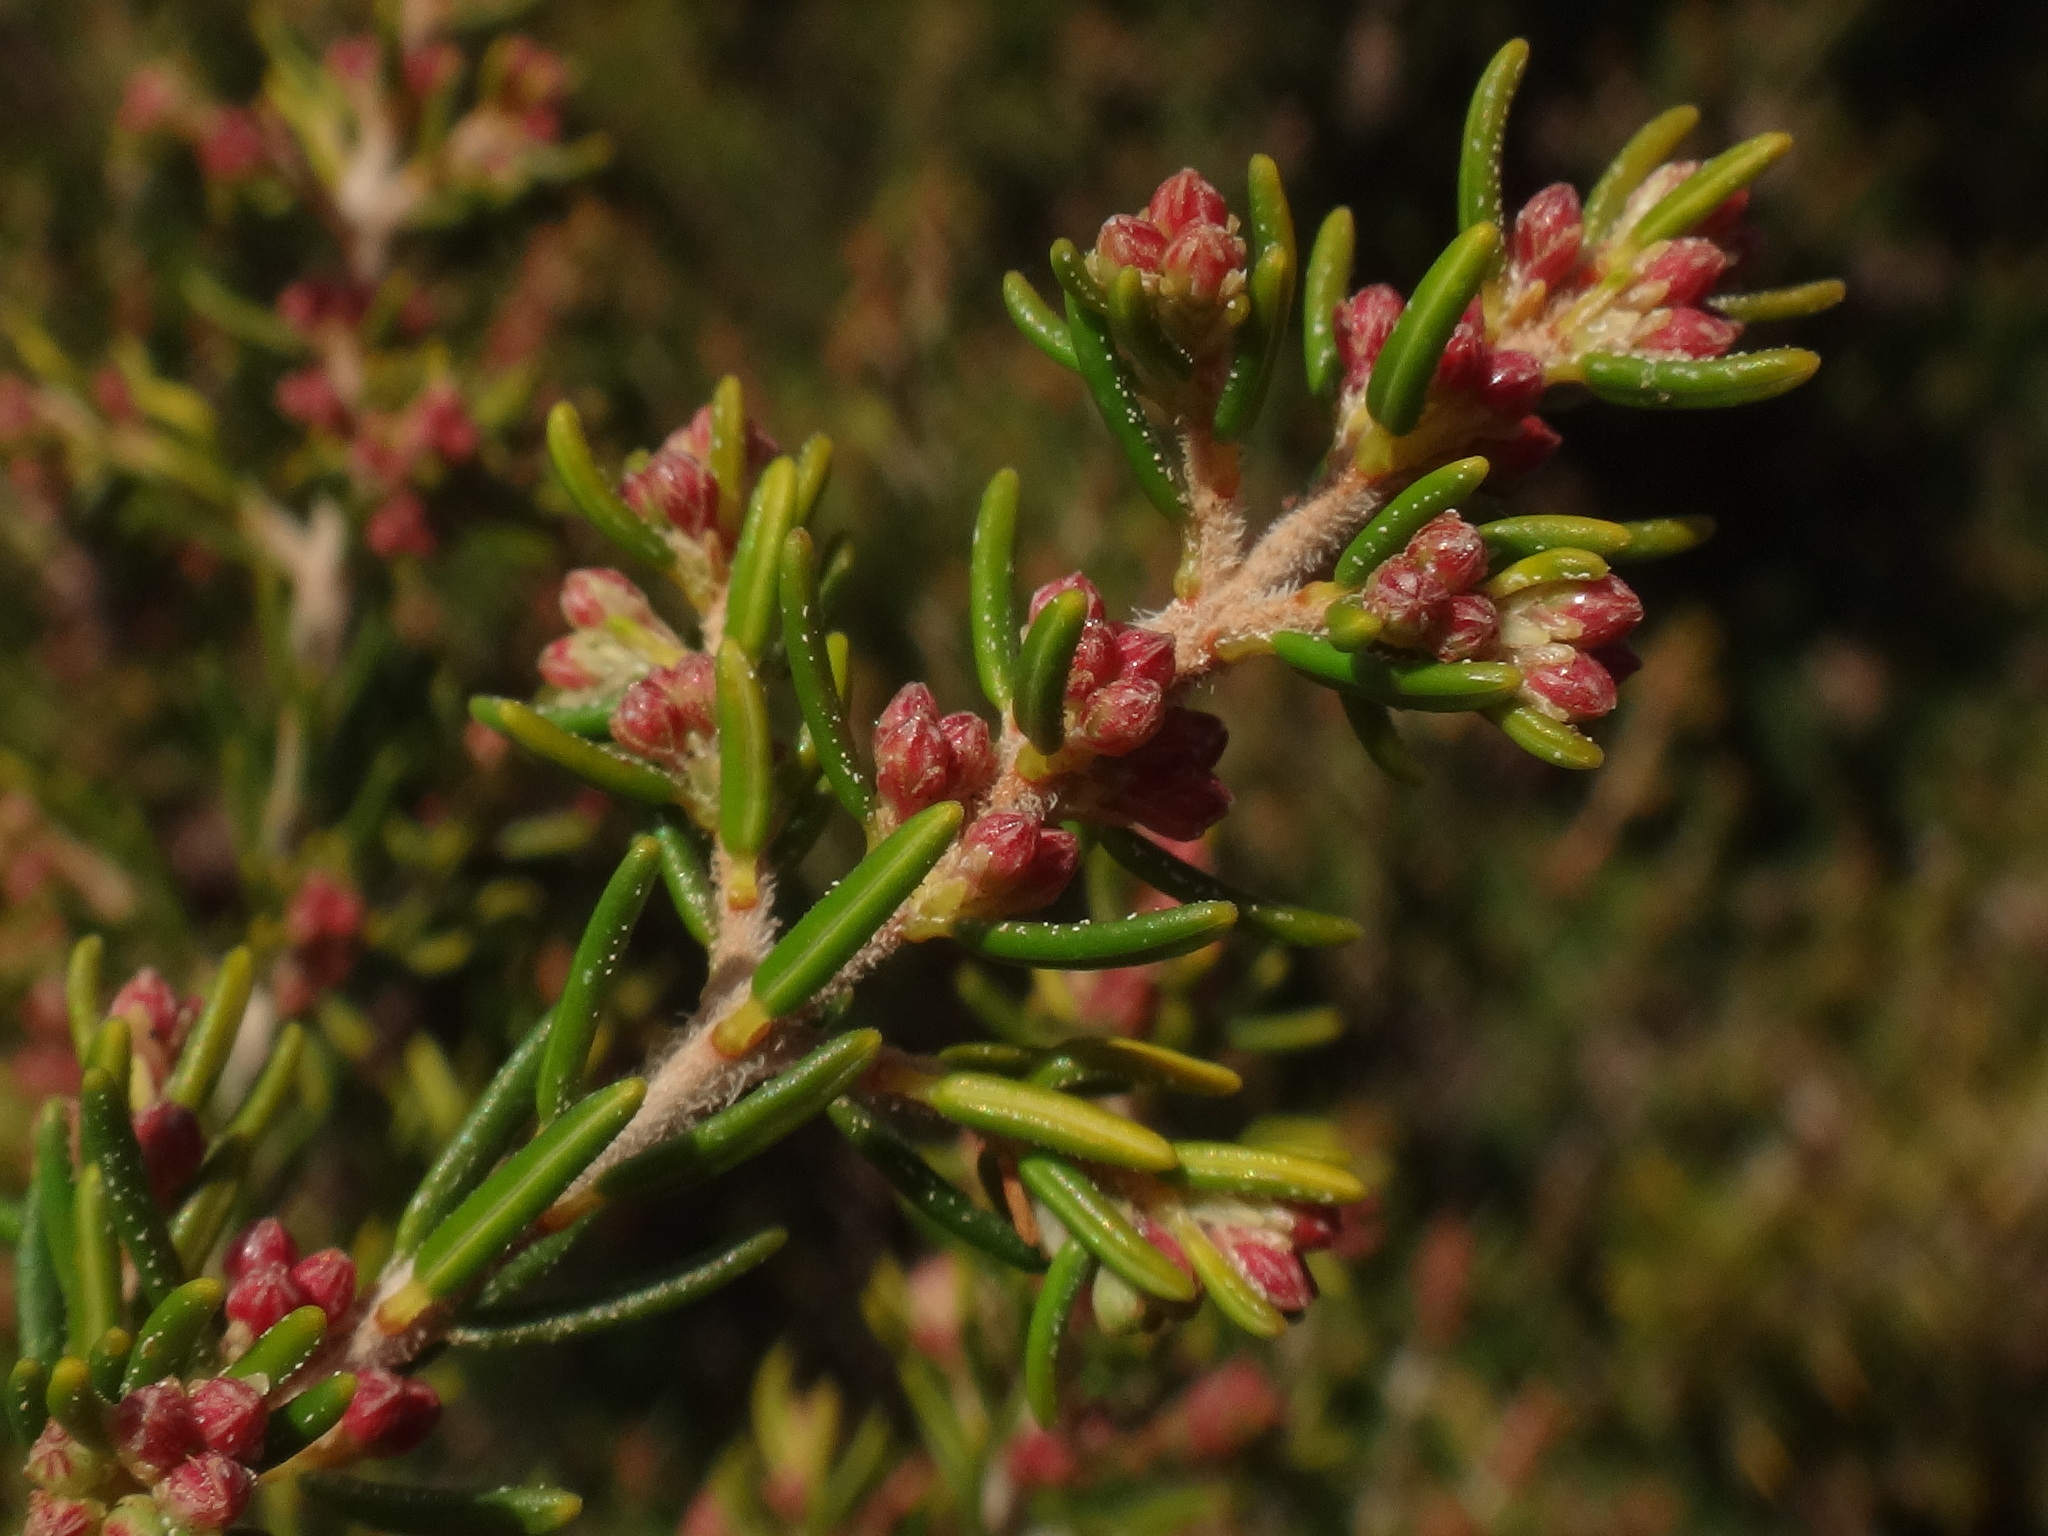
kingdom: Plantae
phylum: Tracheophyta
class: Magnoliopsida
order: Ericales
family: Ericaceae
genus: Erica
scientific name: Erica canariensis
